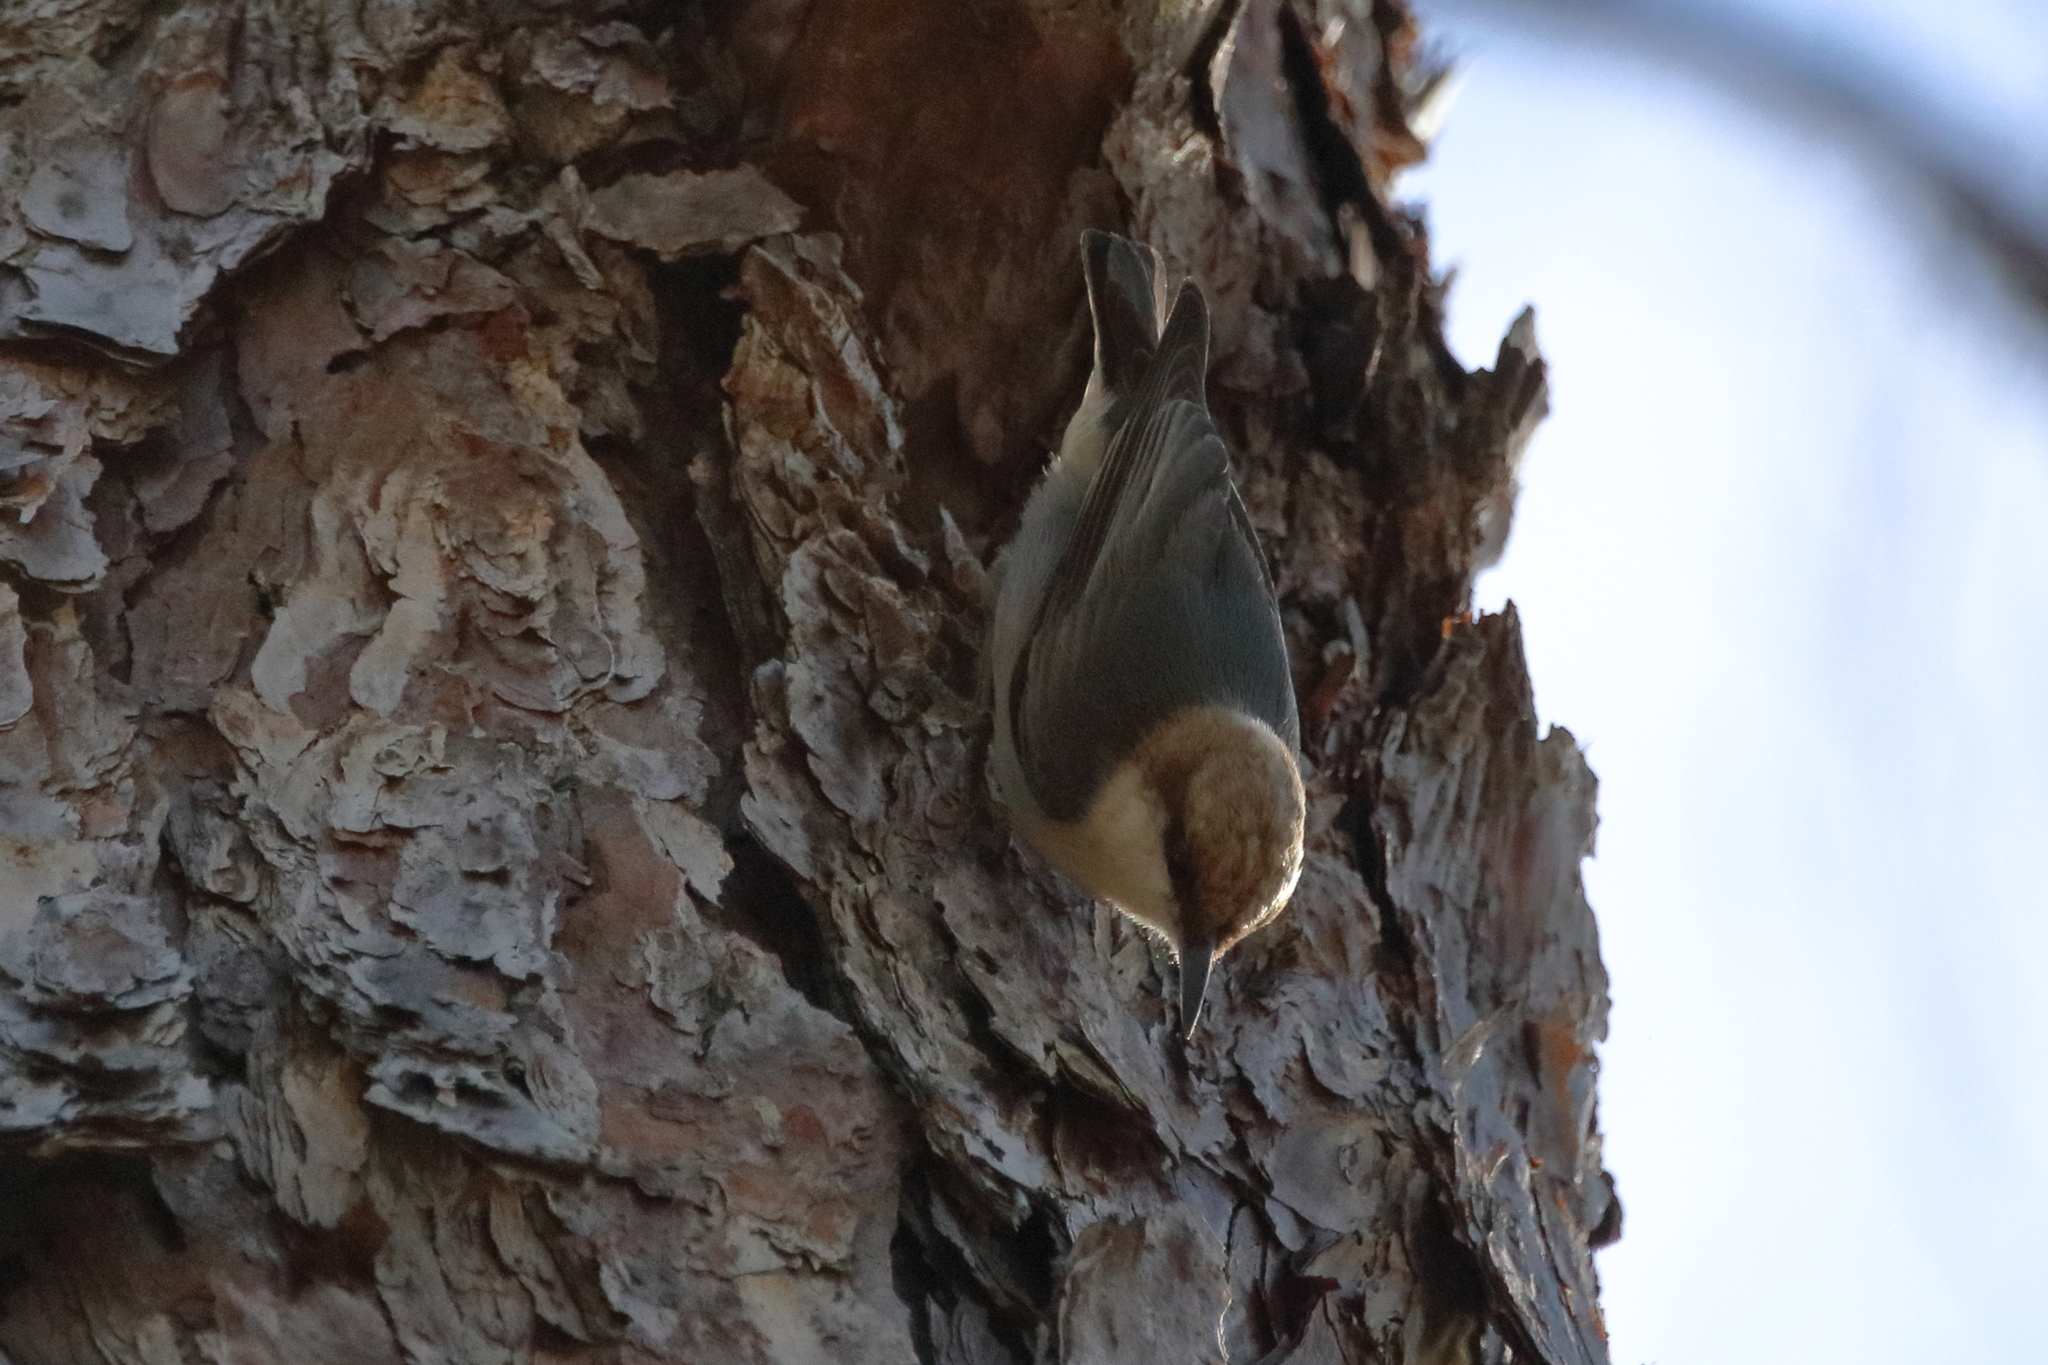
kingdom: Animalia
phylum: Chordata
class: Aves
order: Passeriformes
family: Sittidae
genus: Sitta
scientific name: Sitta pusilla
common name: Brown-headed nuthatch
